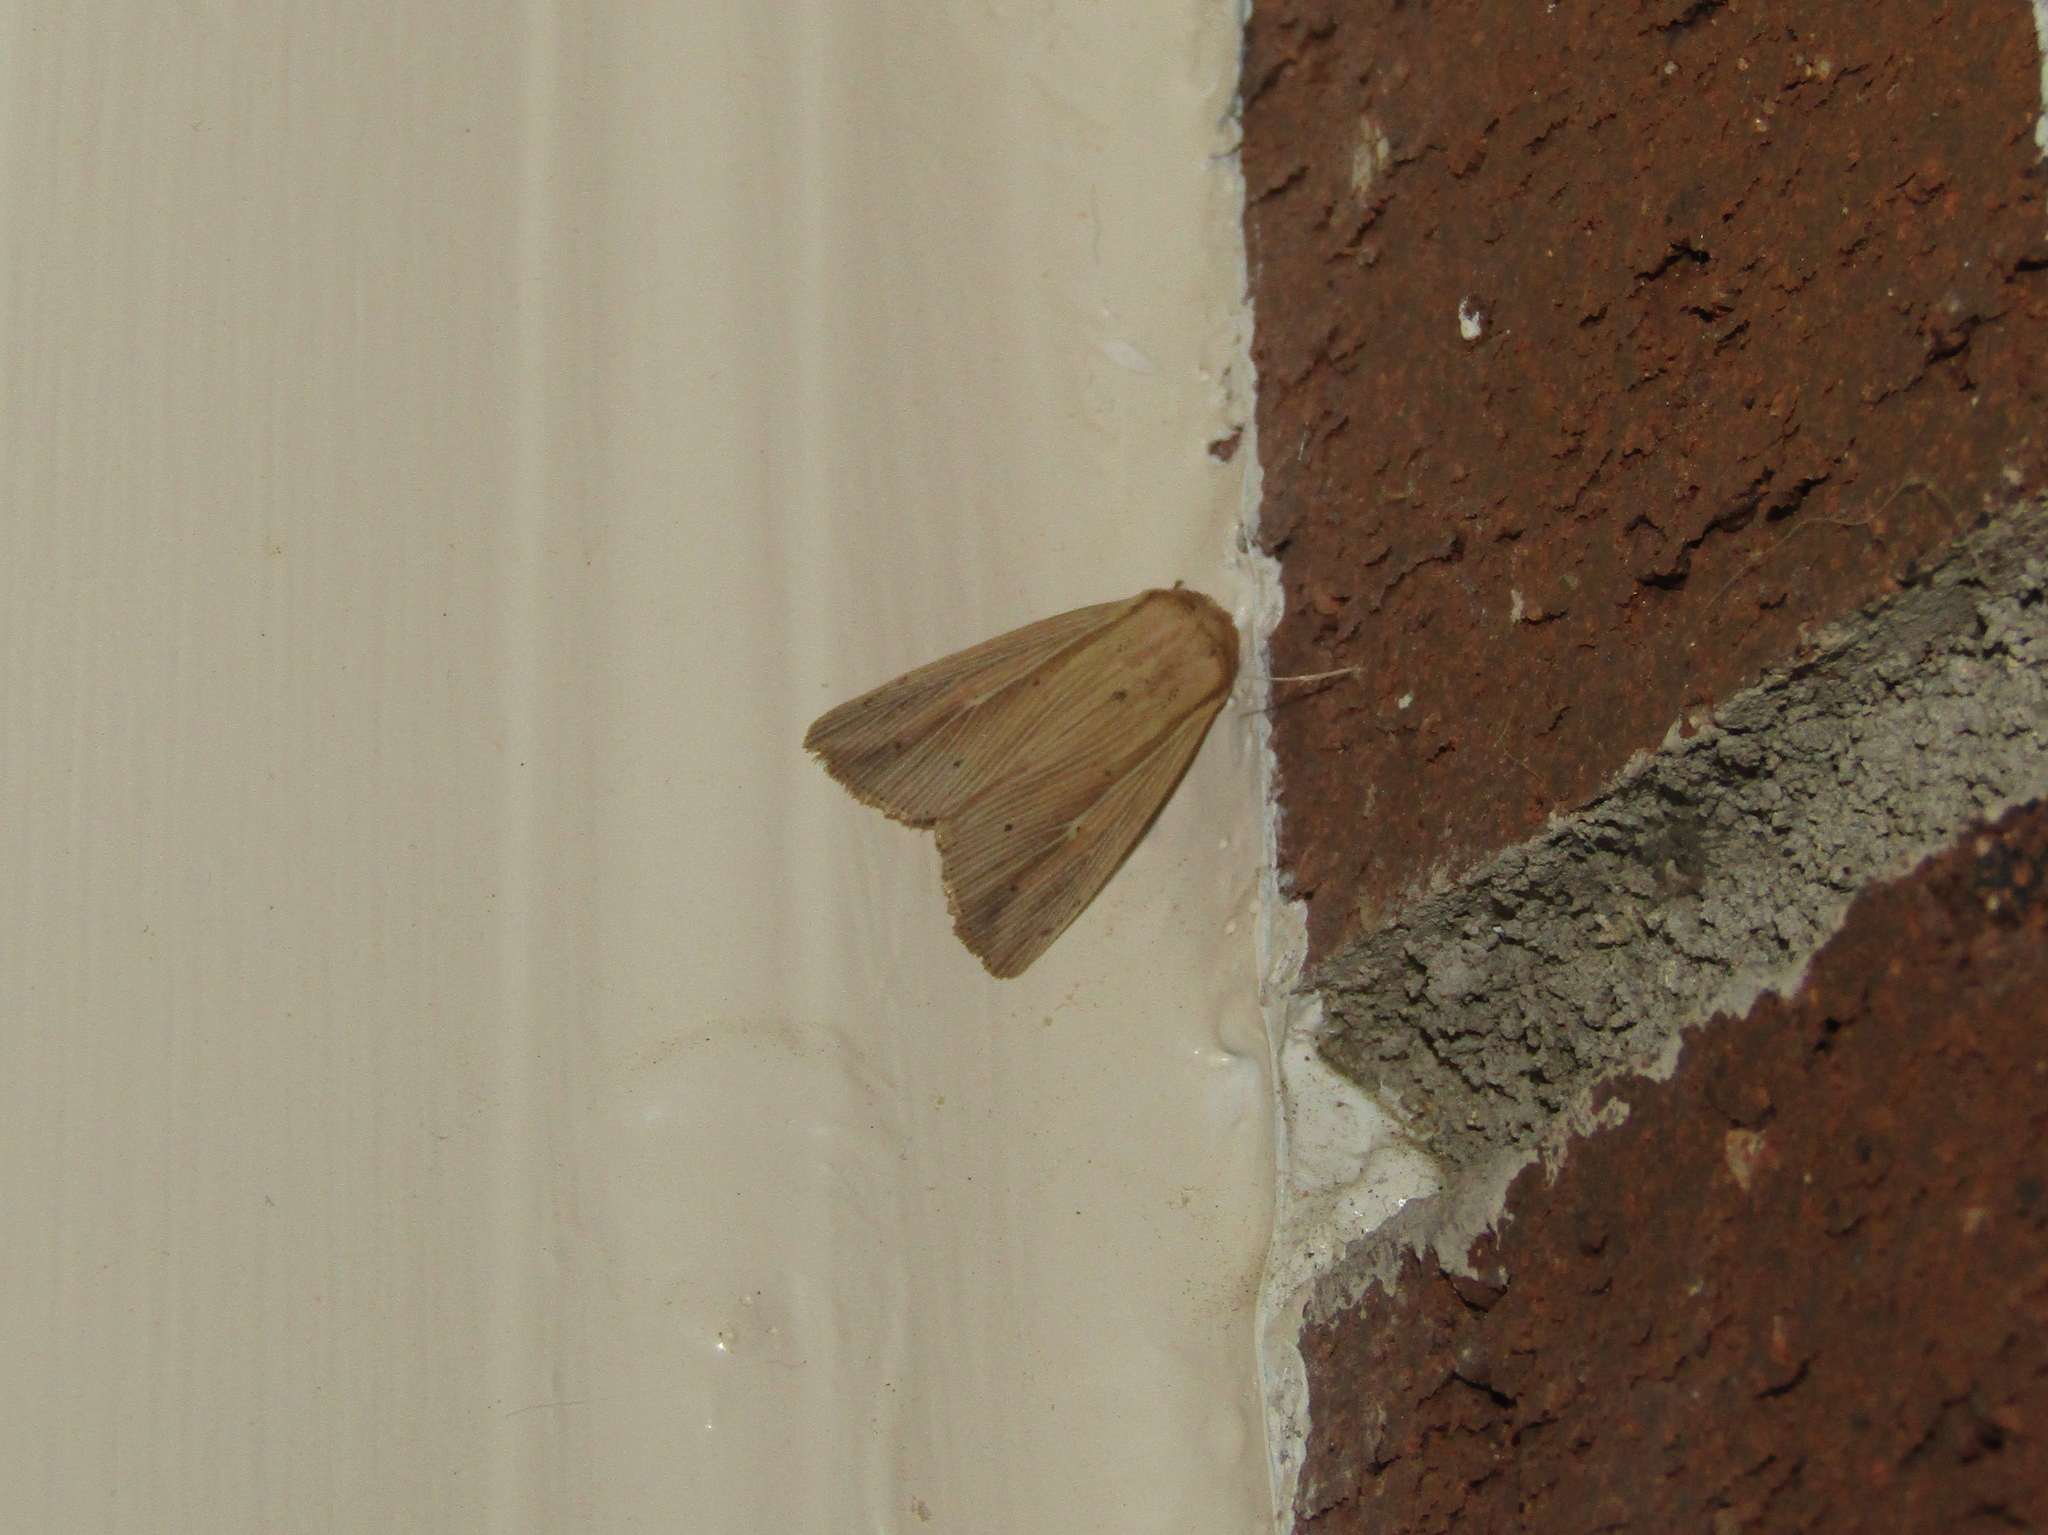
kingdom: Animalia
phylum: Arthropoda
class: Insecta
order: Lepidoptera
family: Noctuidae
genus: Leucania
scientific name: Leucania adjuta
